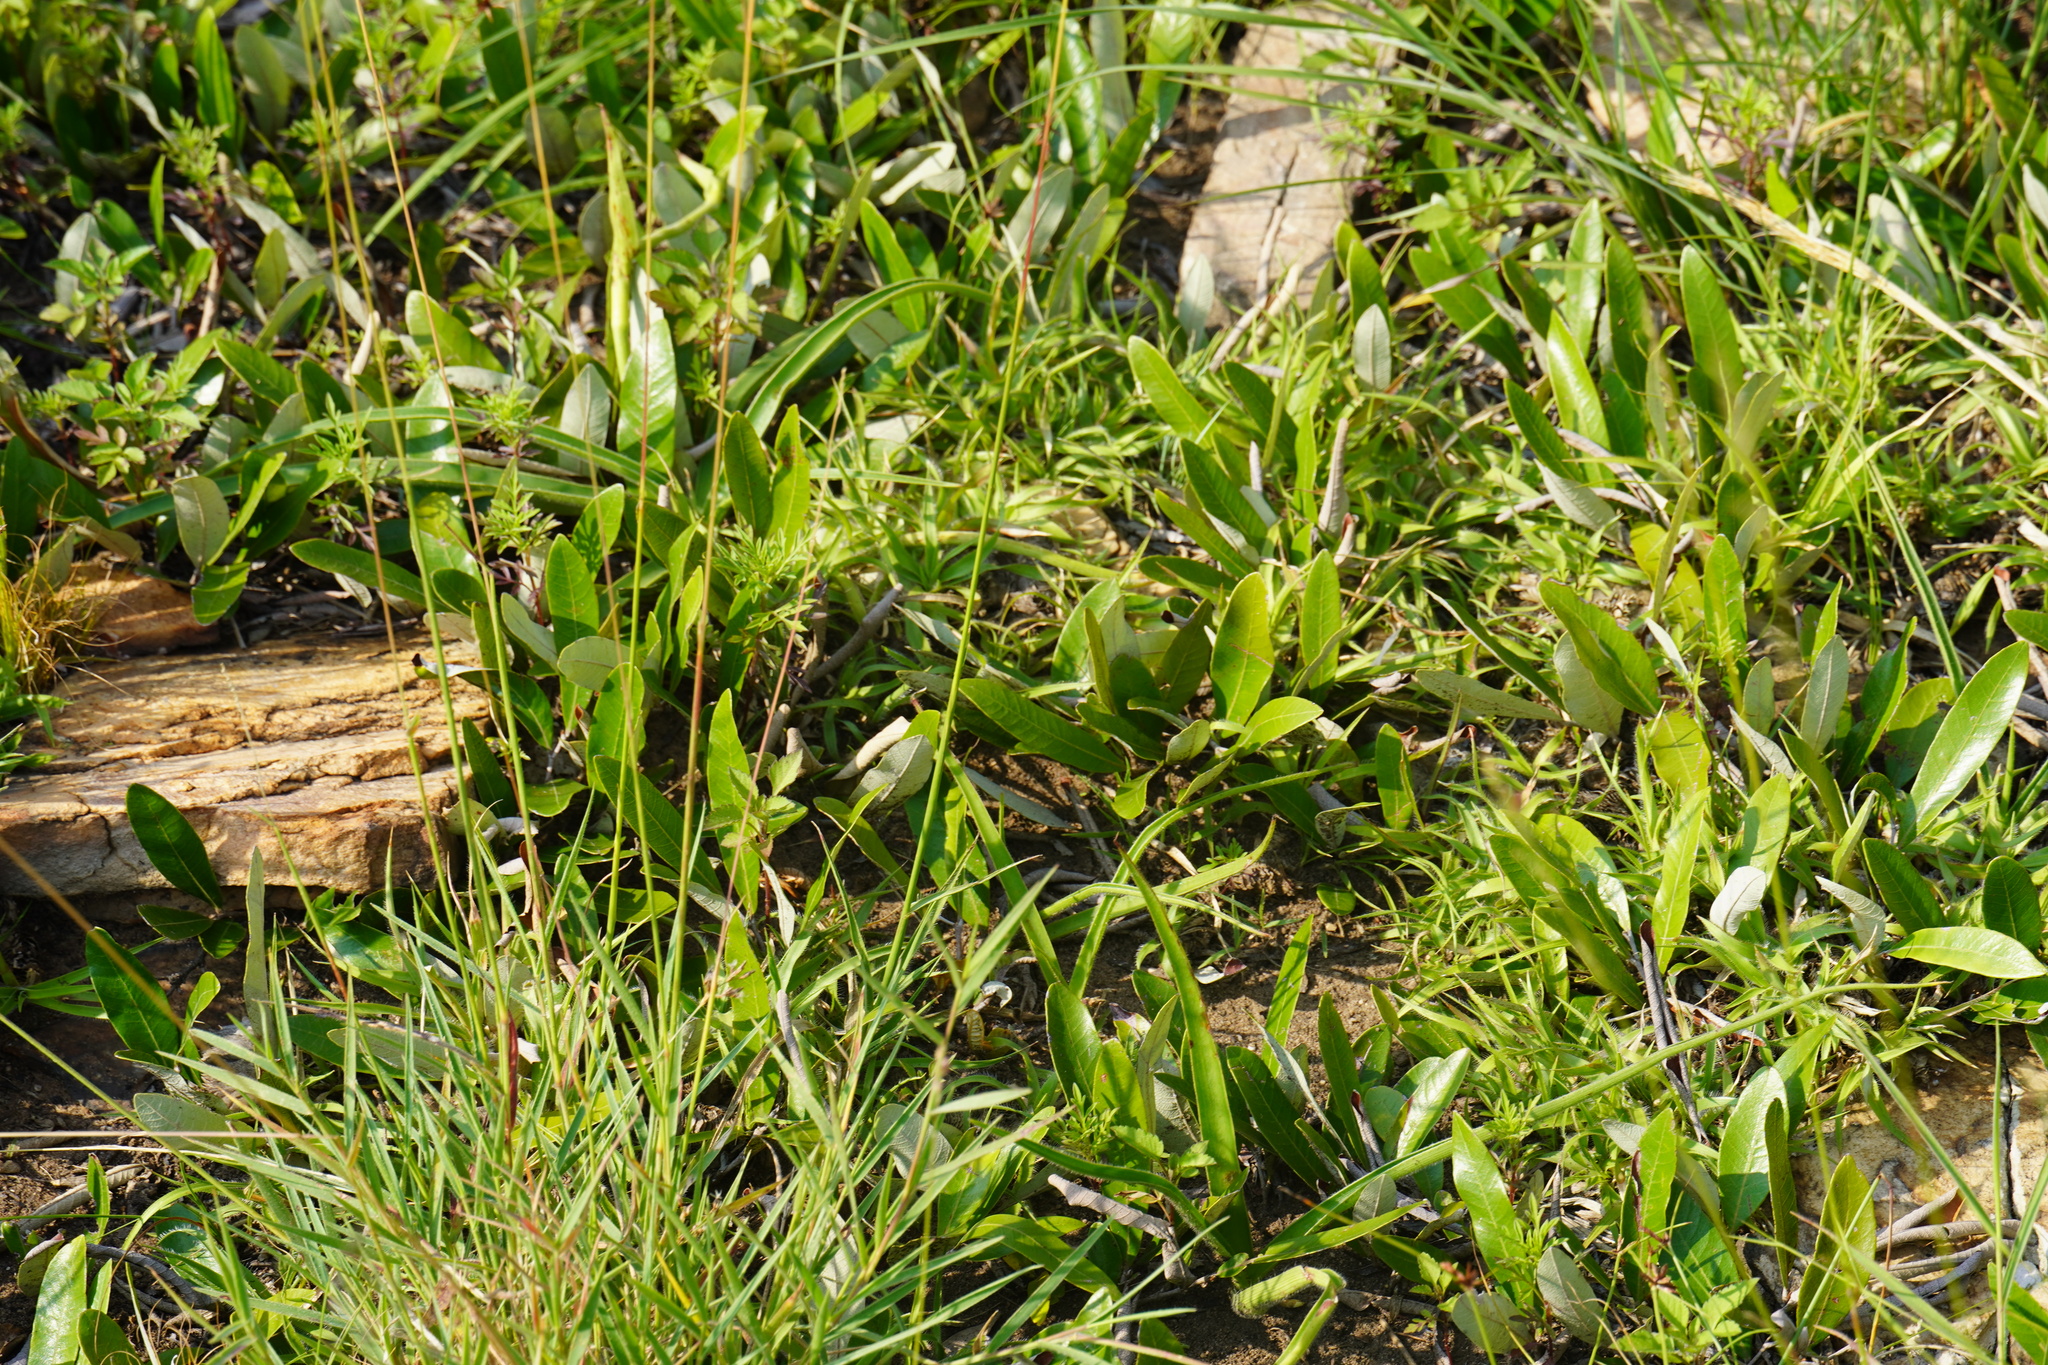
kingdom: Plantae
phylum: Tracheophyta
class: Magnoliopsida
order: Malpighiales
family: Chrysobalanaceae
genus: Parinari
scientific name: Parinari capensis
